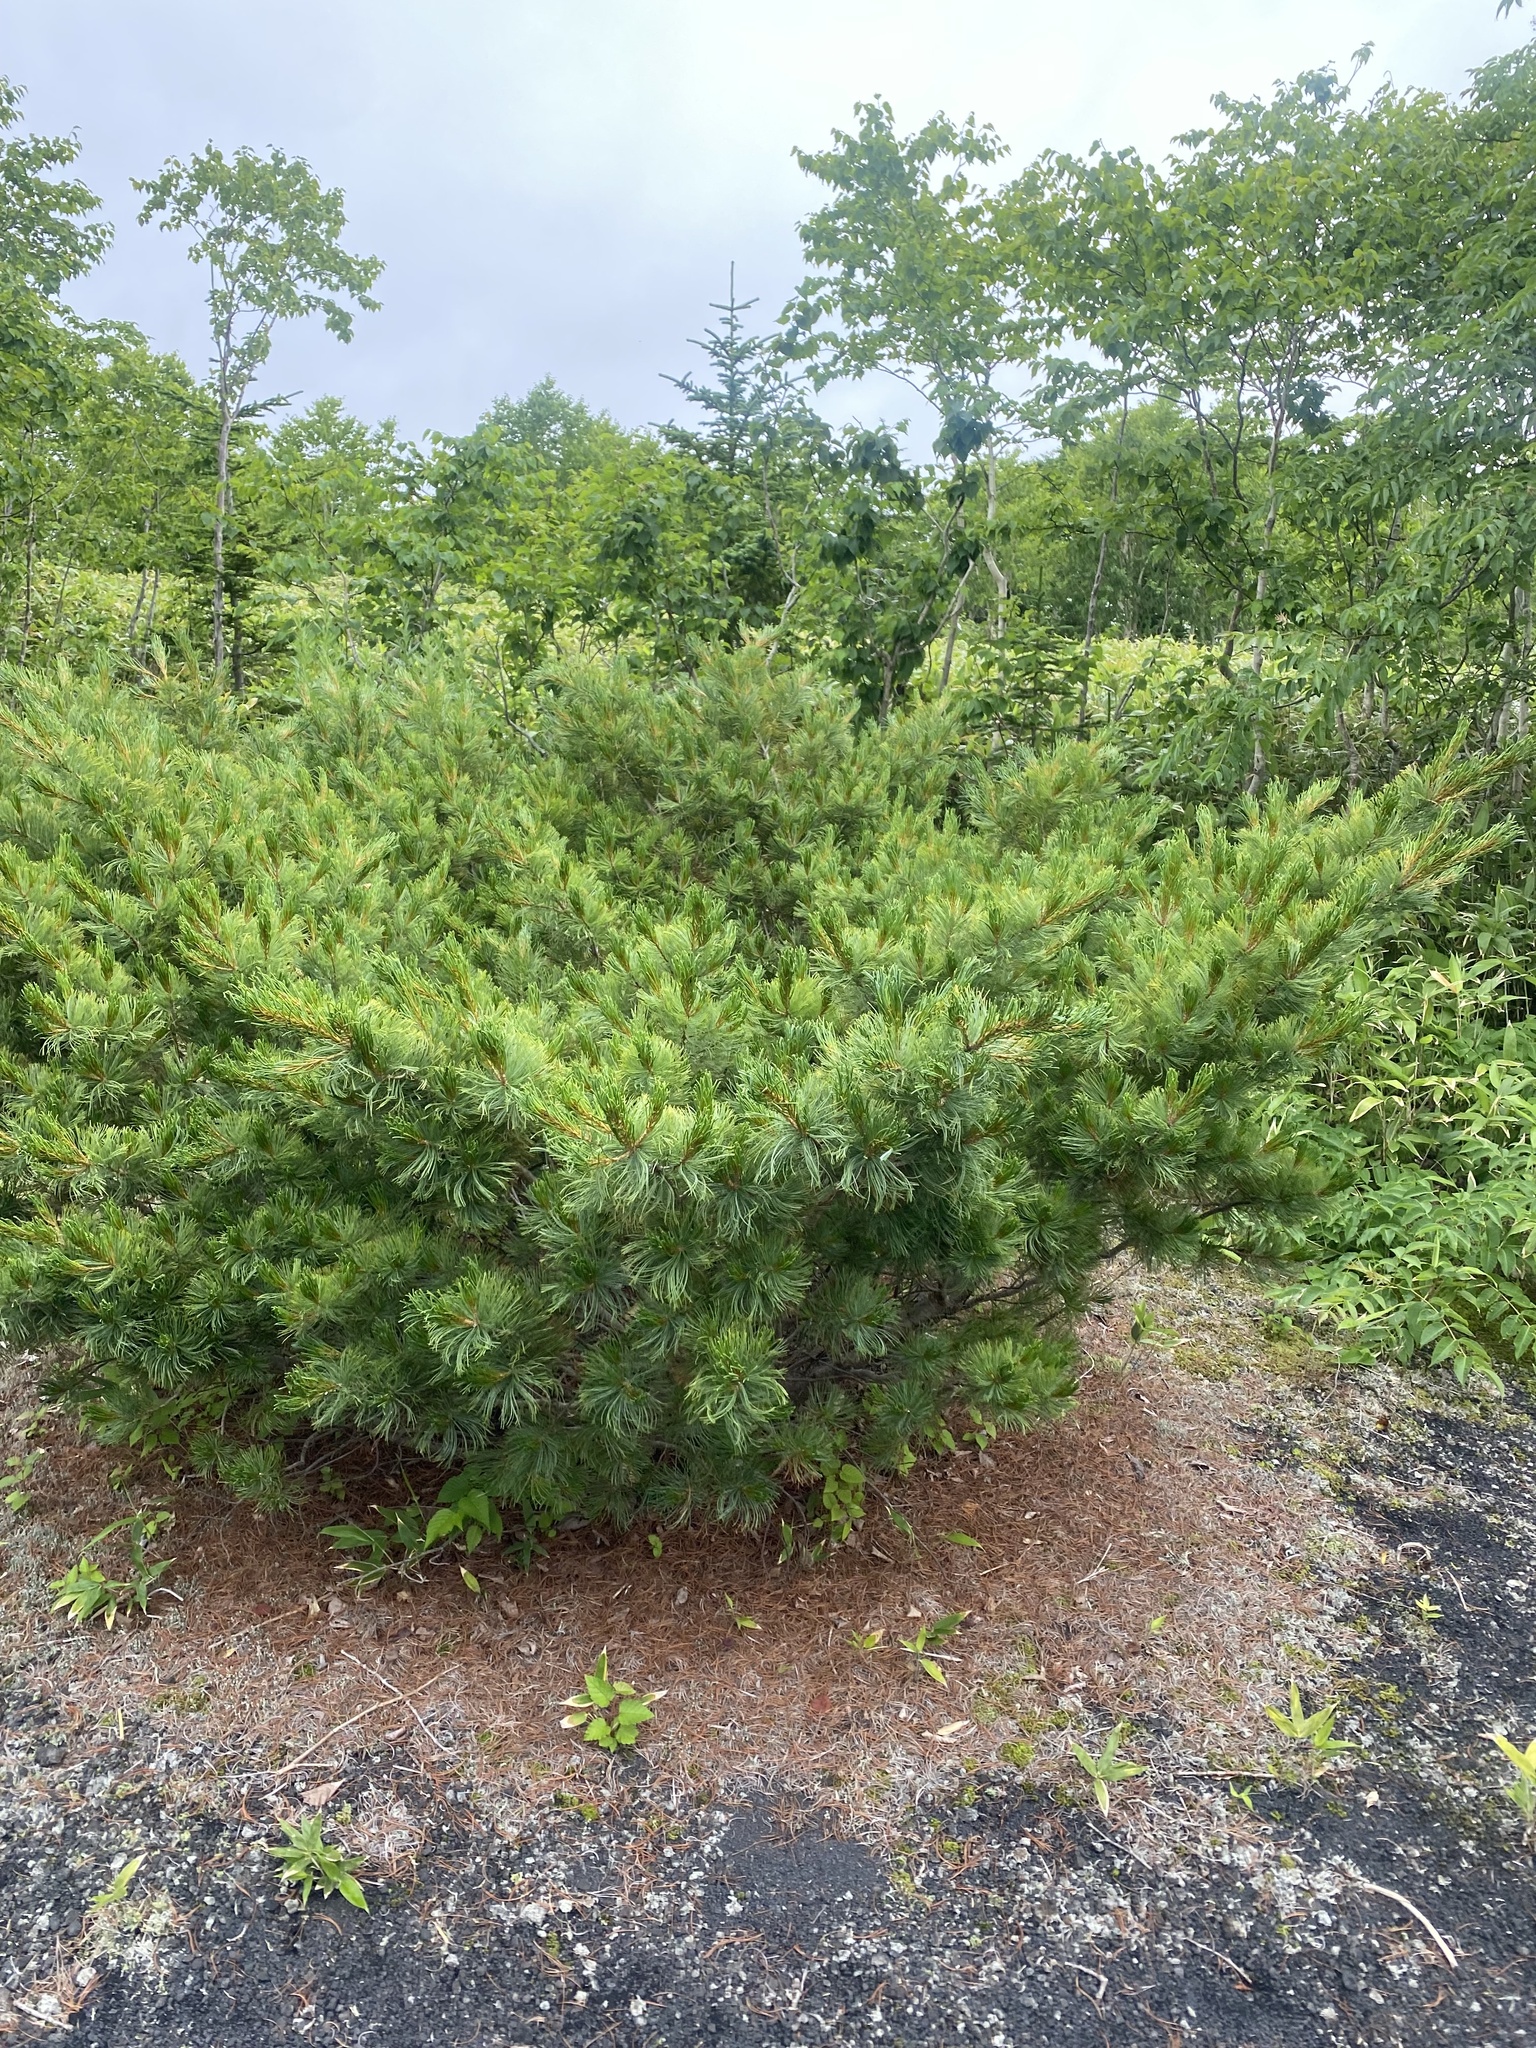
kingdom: Plantae
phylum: Tracheophyta
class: Pinopsida
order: Pinales
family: Pinaceae
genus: Pinus
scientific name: Pinus pumila
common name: Dwarf siberian pine
